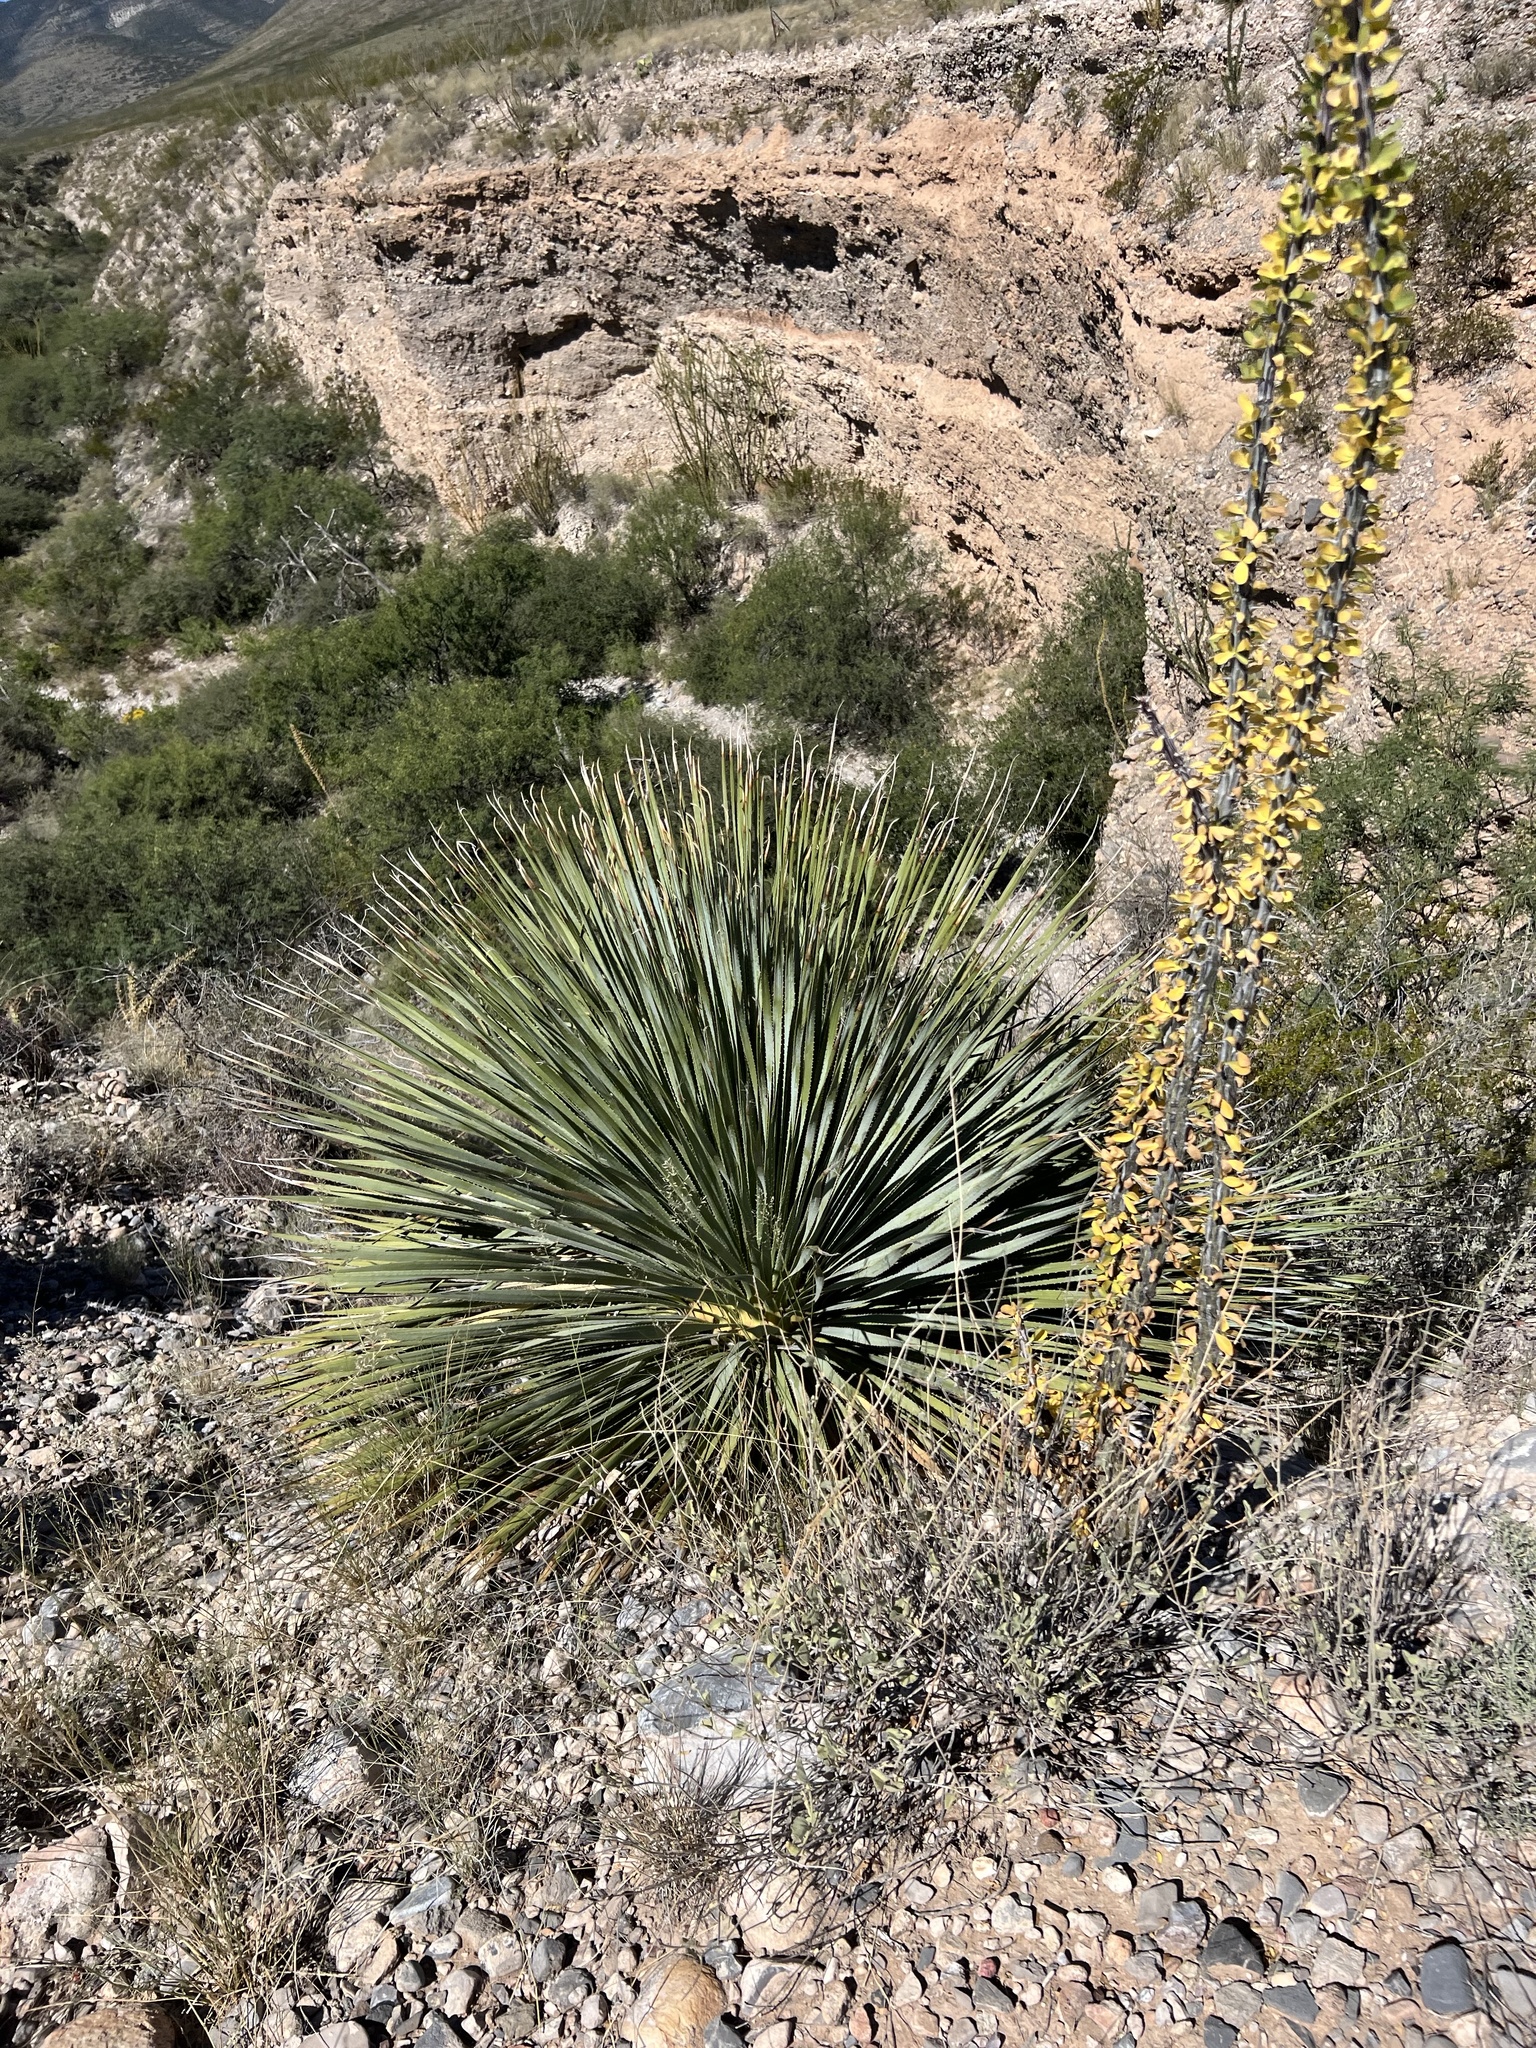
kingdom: Plantae
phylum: Tracheophyta
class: Liliopsida
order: Asparagales
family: Asparagaceae
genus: Dasylirion
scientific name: Dasylirion wheeleri
